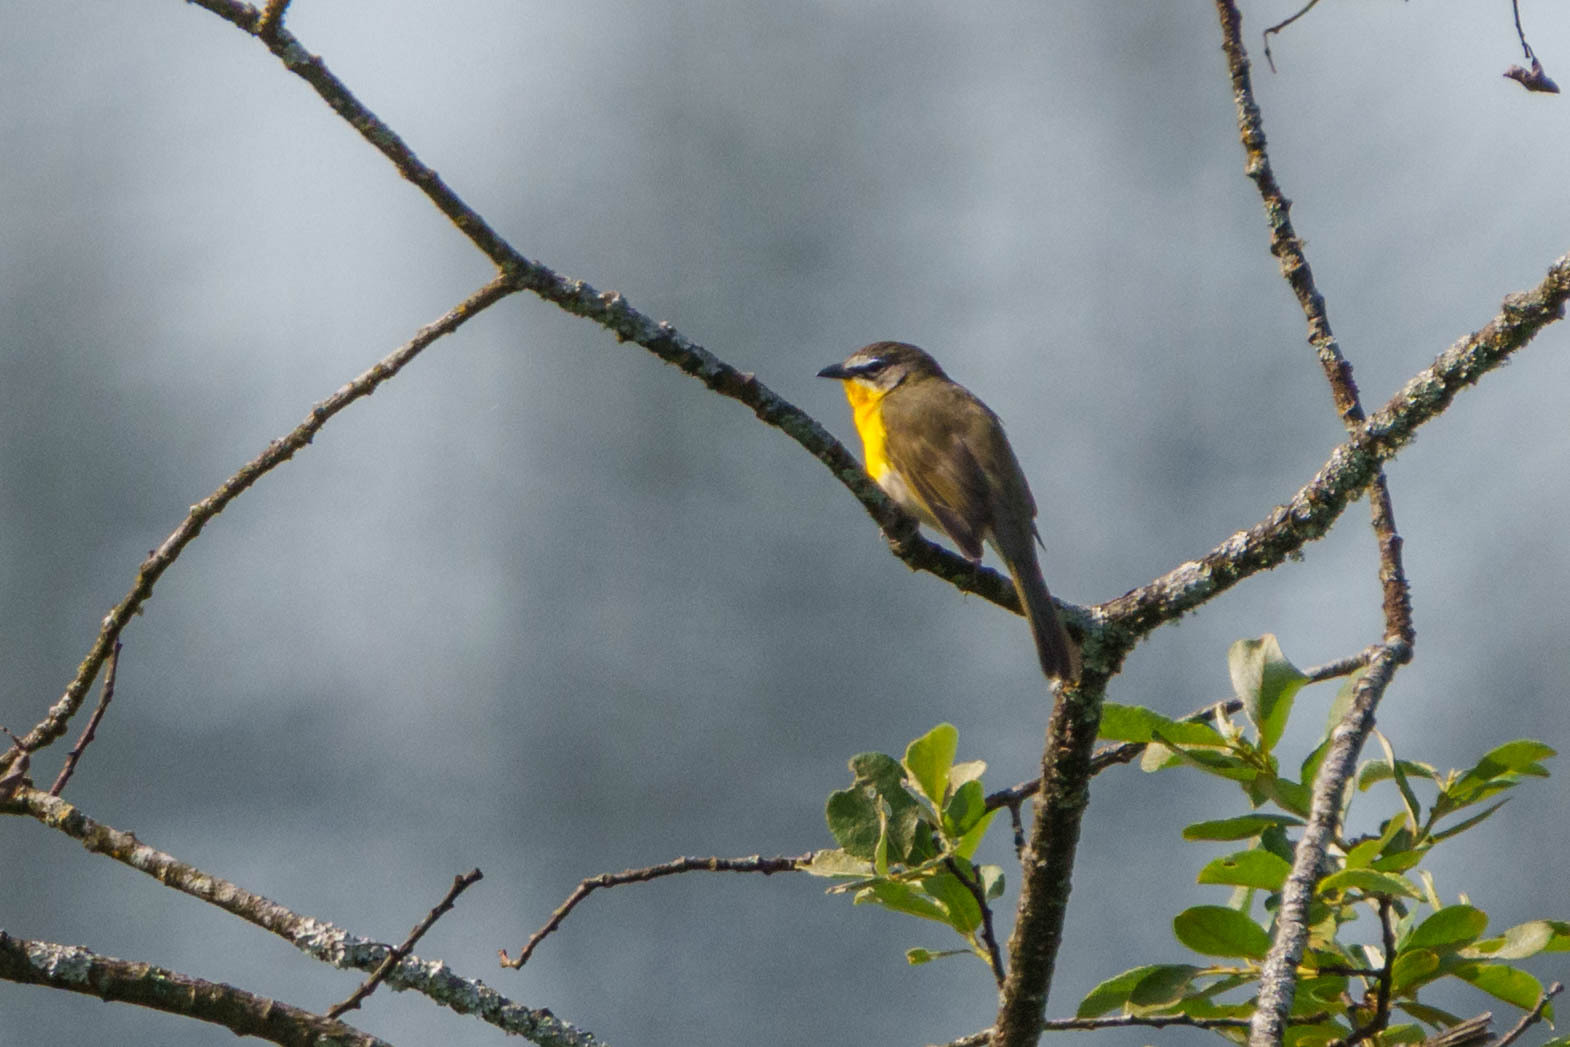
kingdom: Animalia
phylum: Chordata
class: Aves
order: Passeriformes
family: Parulidae
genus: Icteria
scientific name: Icteria virens
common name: Yellow-breasted chat
